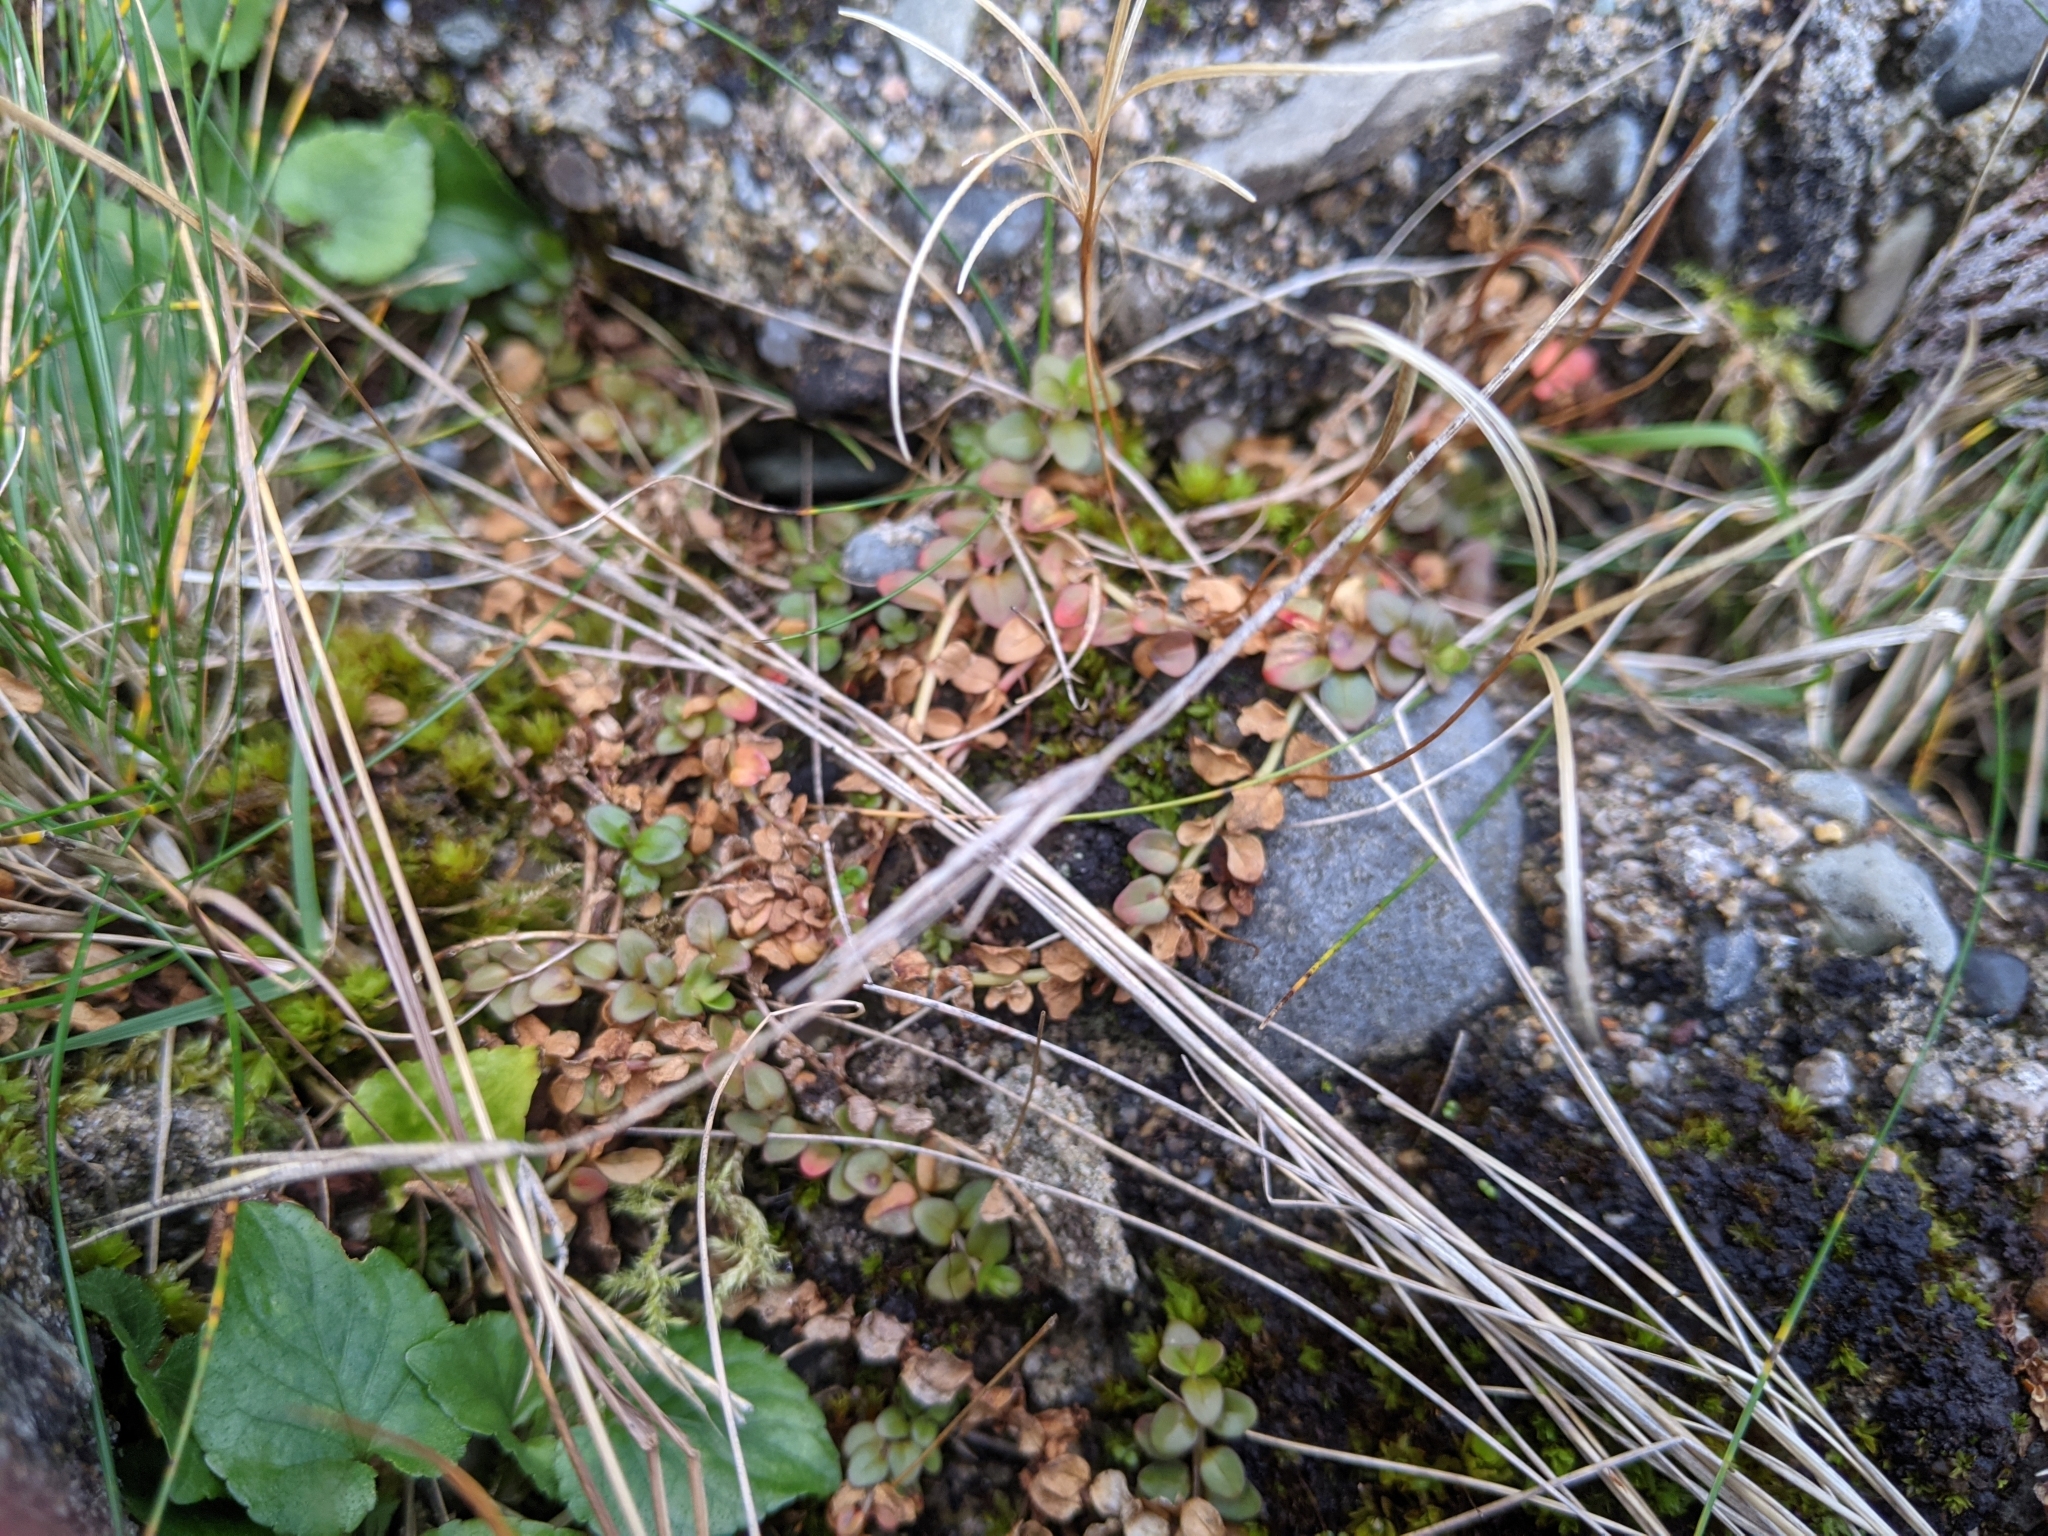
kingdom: Plantae
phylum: Tracheophyta
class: Magnoliopsida
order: Myrtales
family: Onagraceae
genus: Epilobium
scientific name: Epilobium brunnescens
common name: New zealand willowherb
